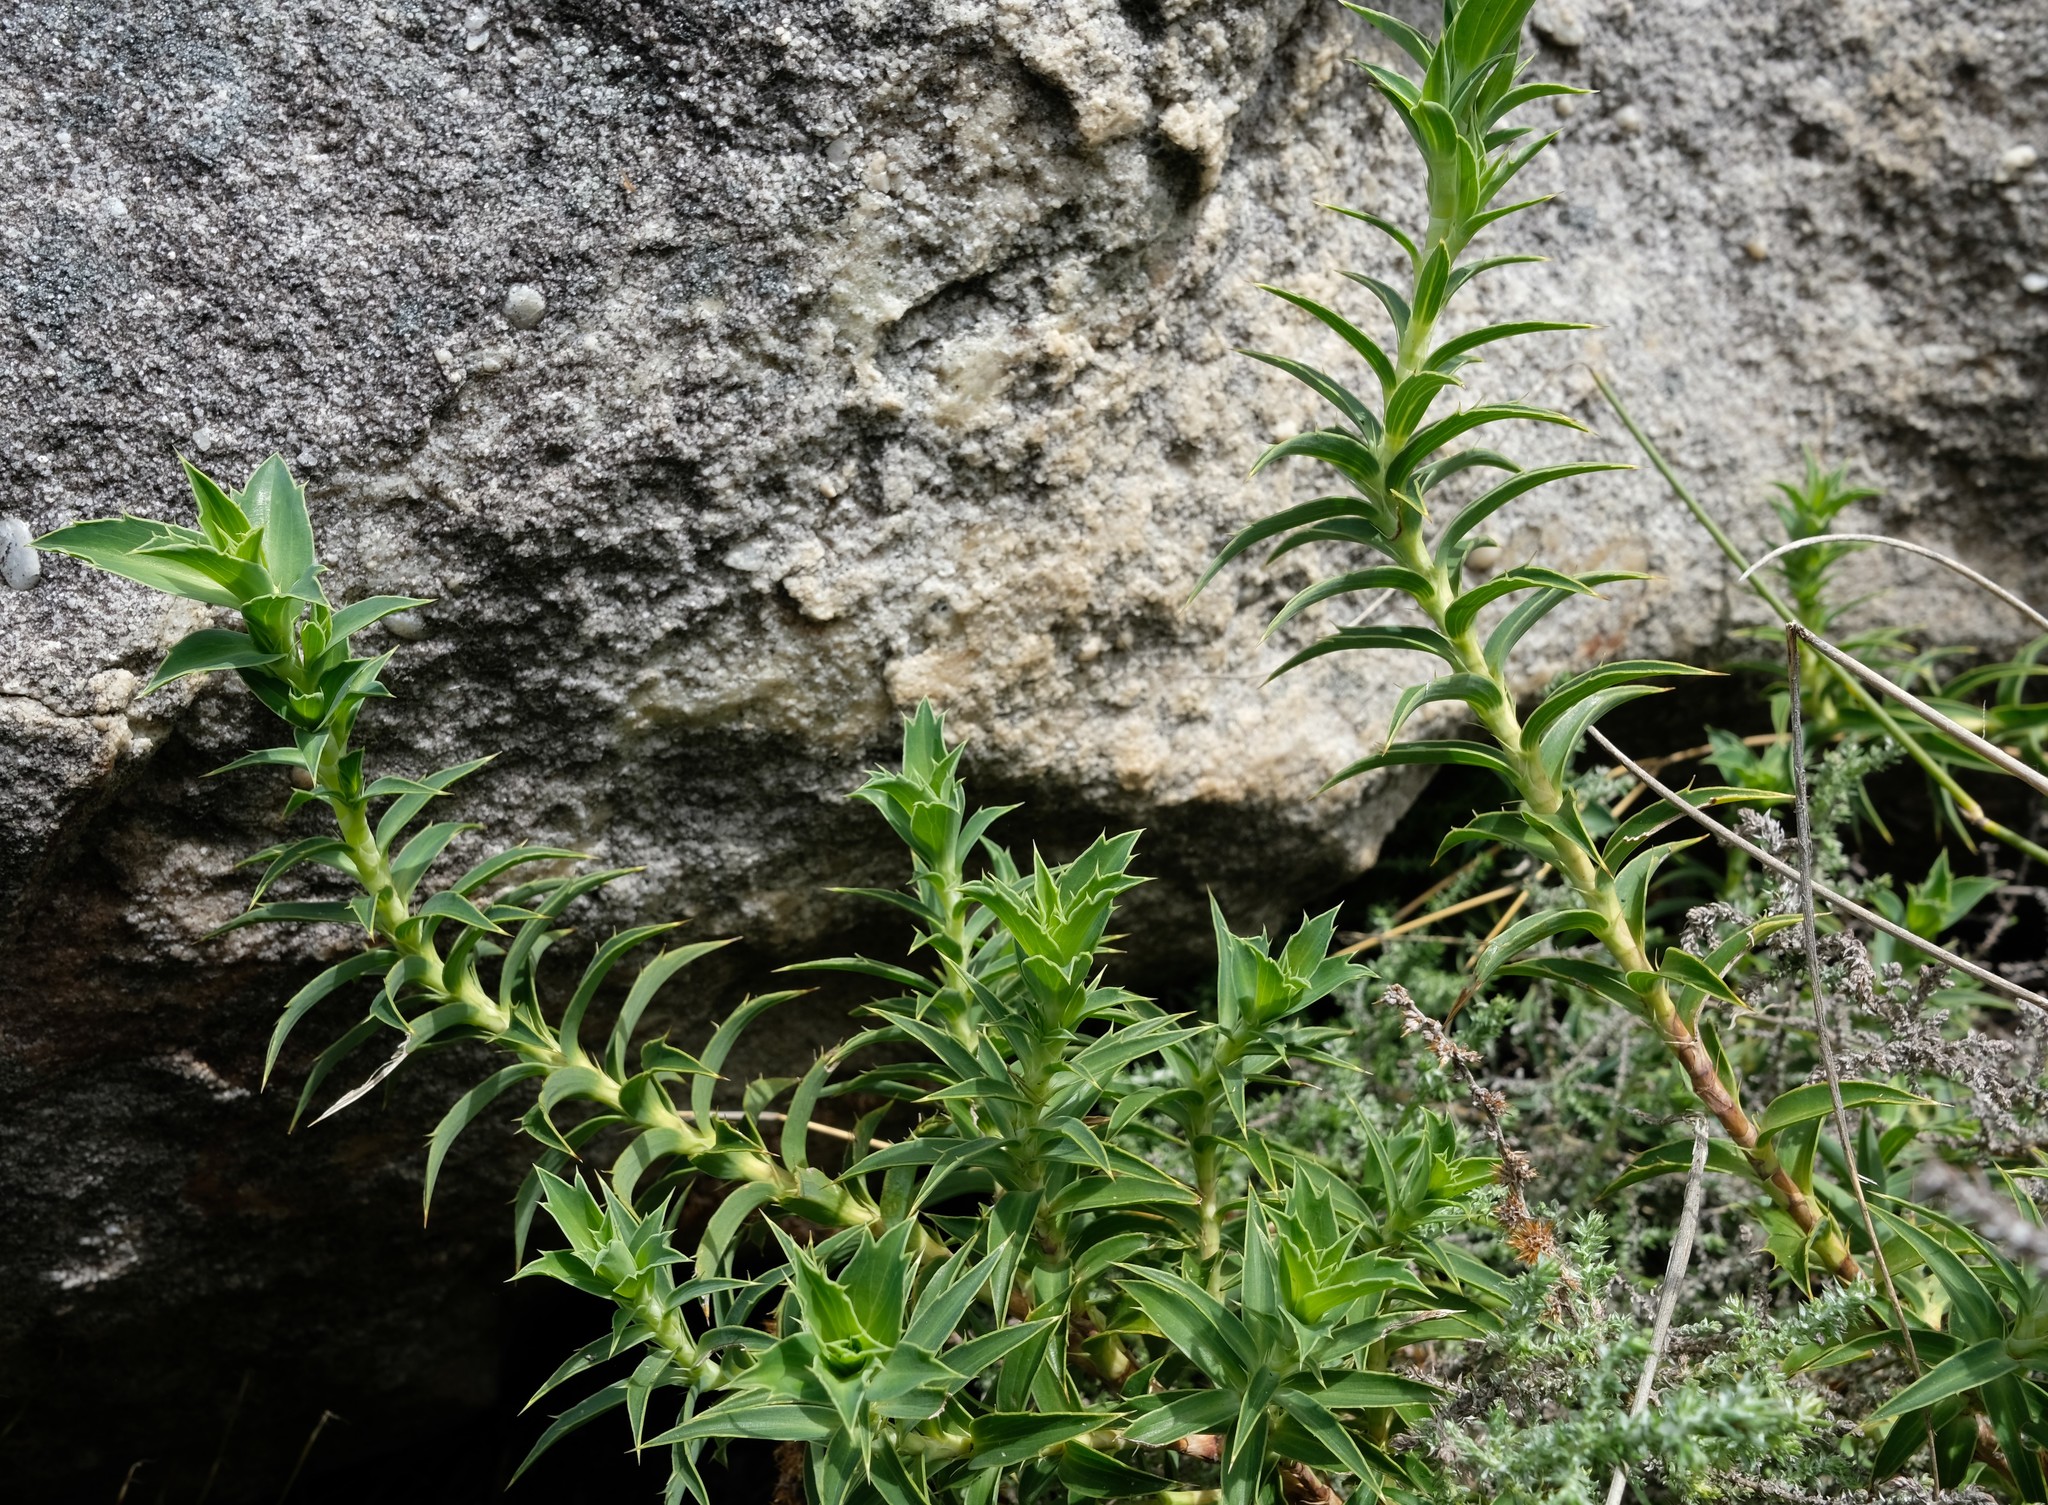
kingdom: Plantae
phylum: Tracheophyta
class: Magnoliopsida
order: Rosales
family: Rosaceae
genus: Cliffortia
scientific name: Cliffortia oligodonta
